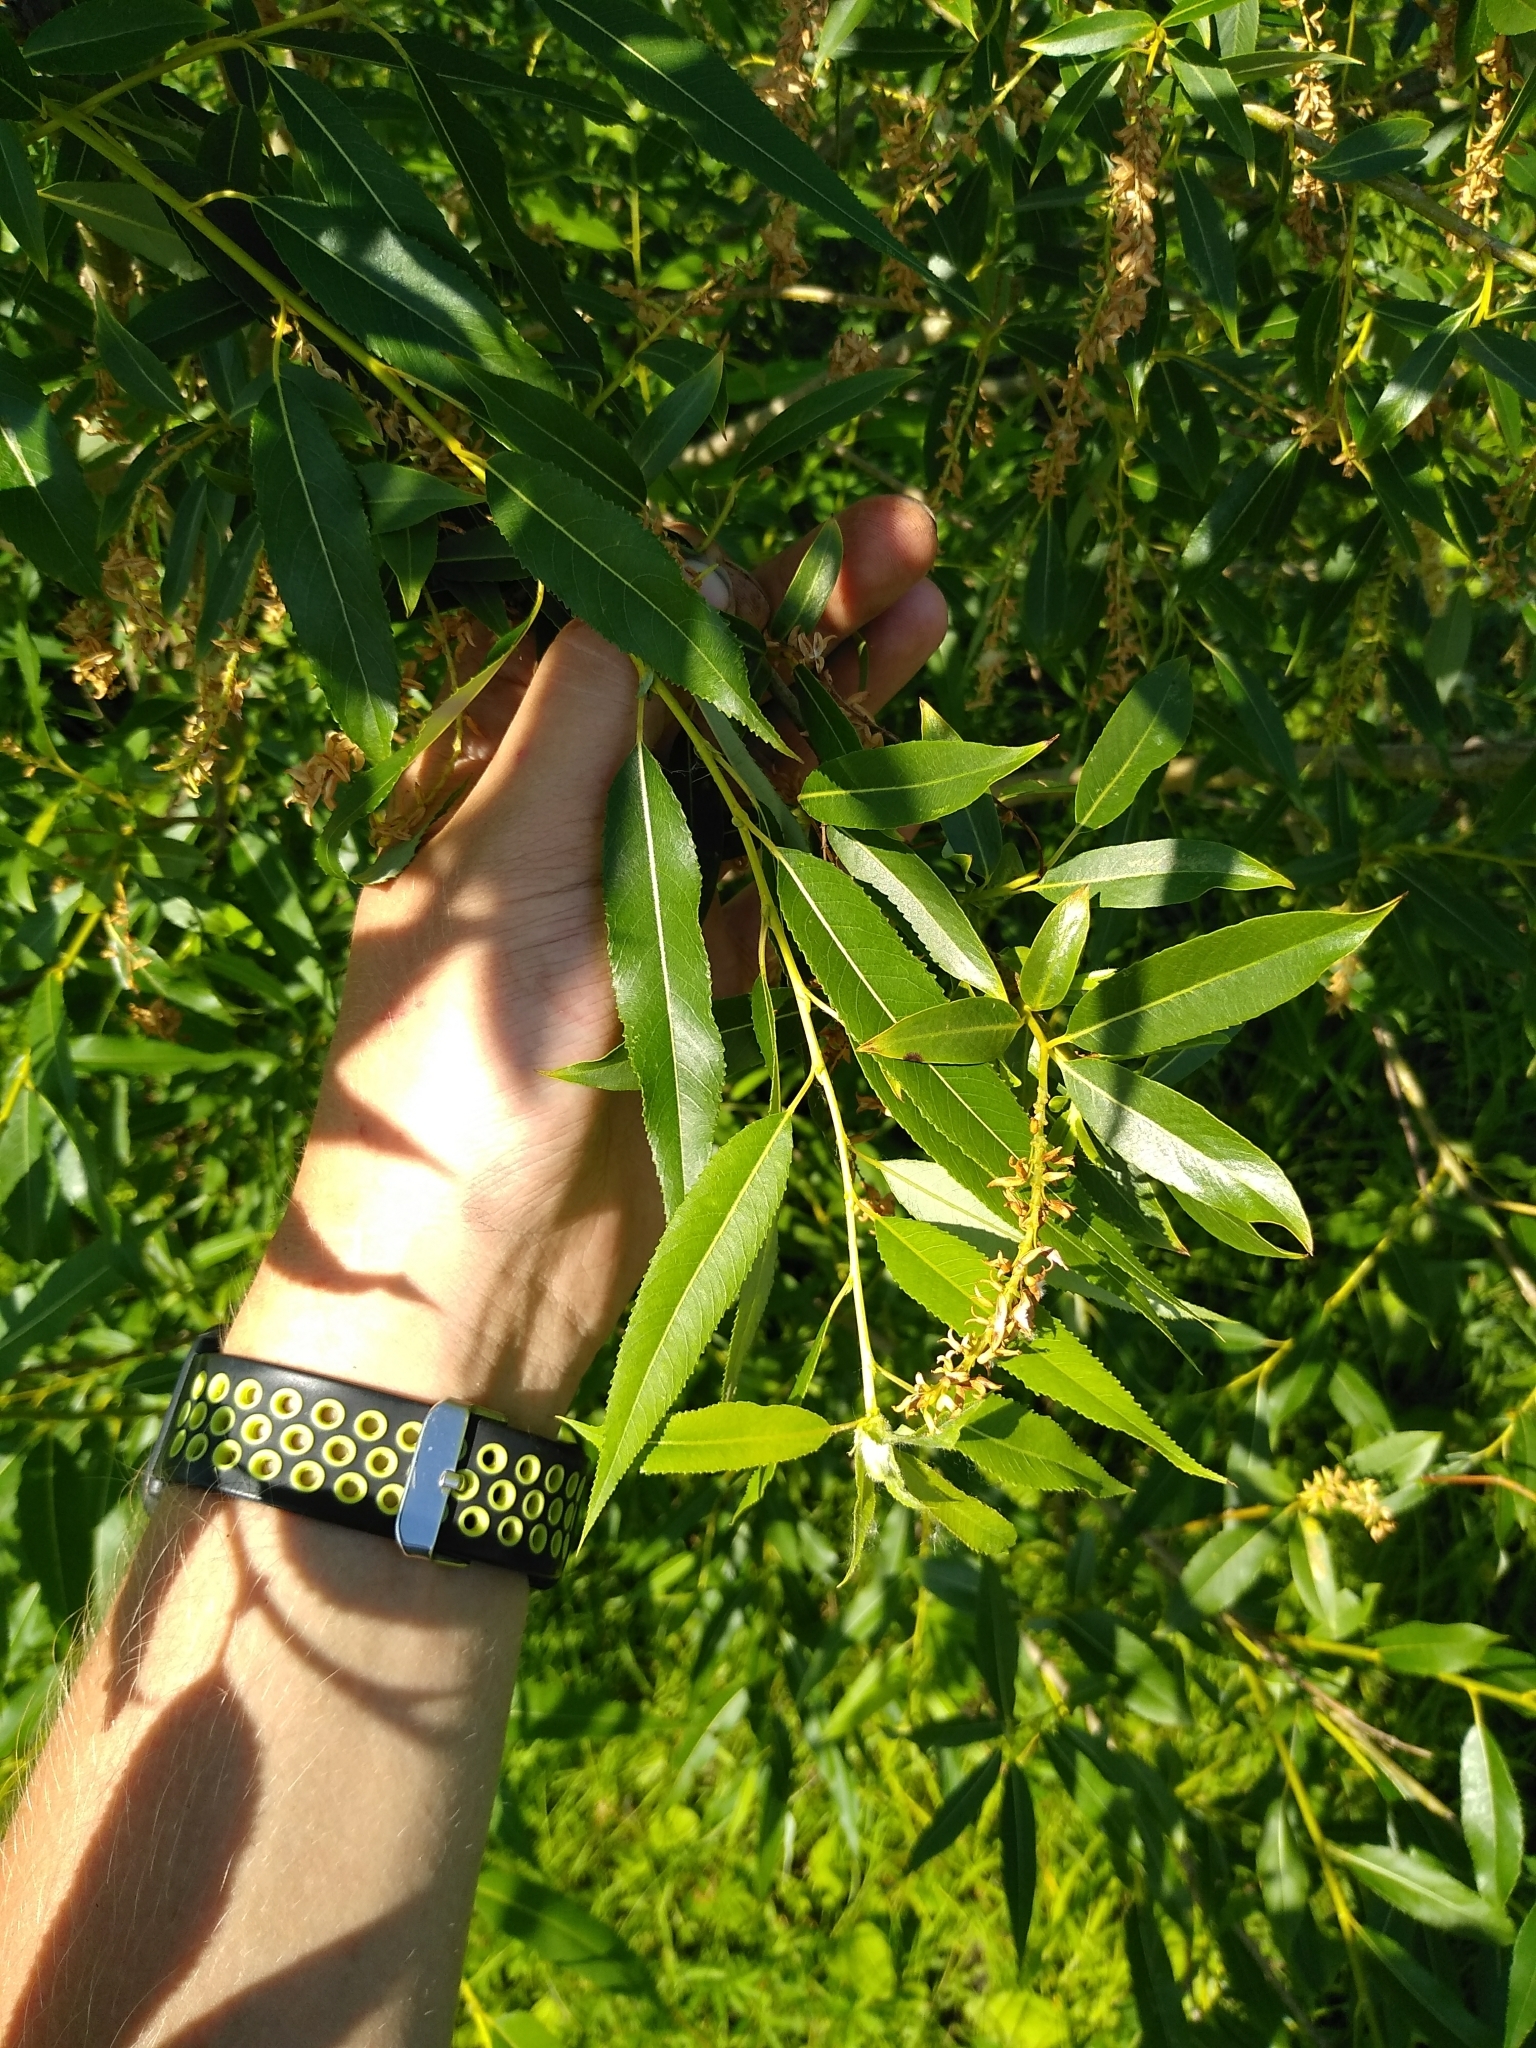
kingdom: Plantae
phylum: Tracheophyta
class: Magnoliopsida
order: Malpighiales
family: Salicaceae
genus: Salix
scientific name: Salix triandra
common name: Almond willow
